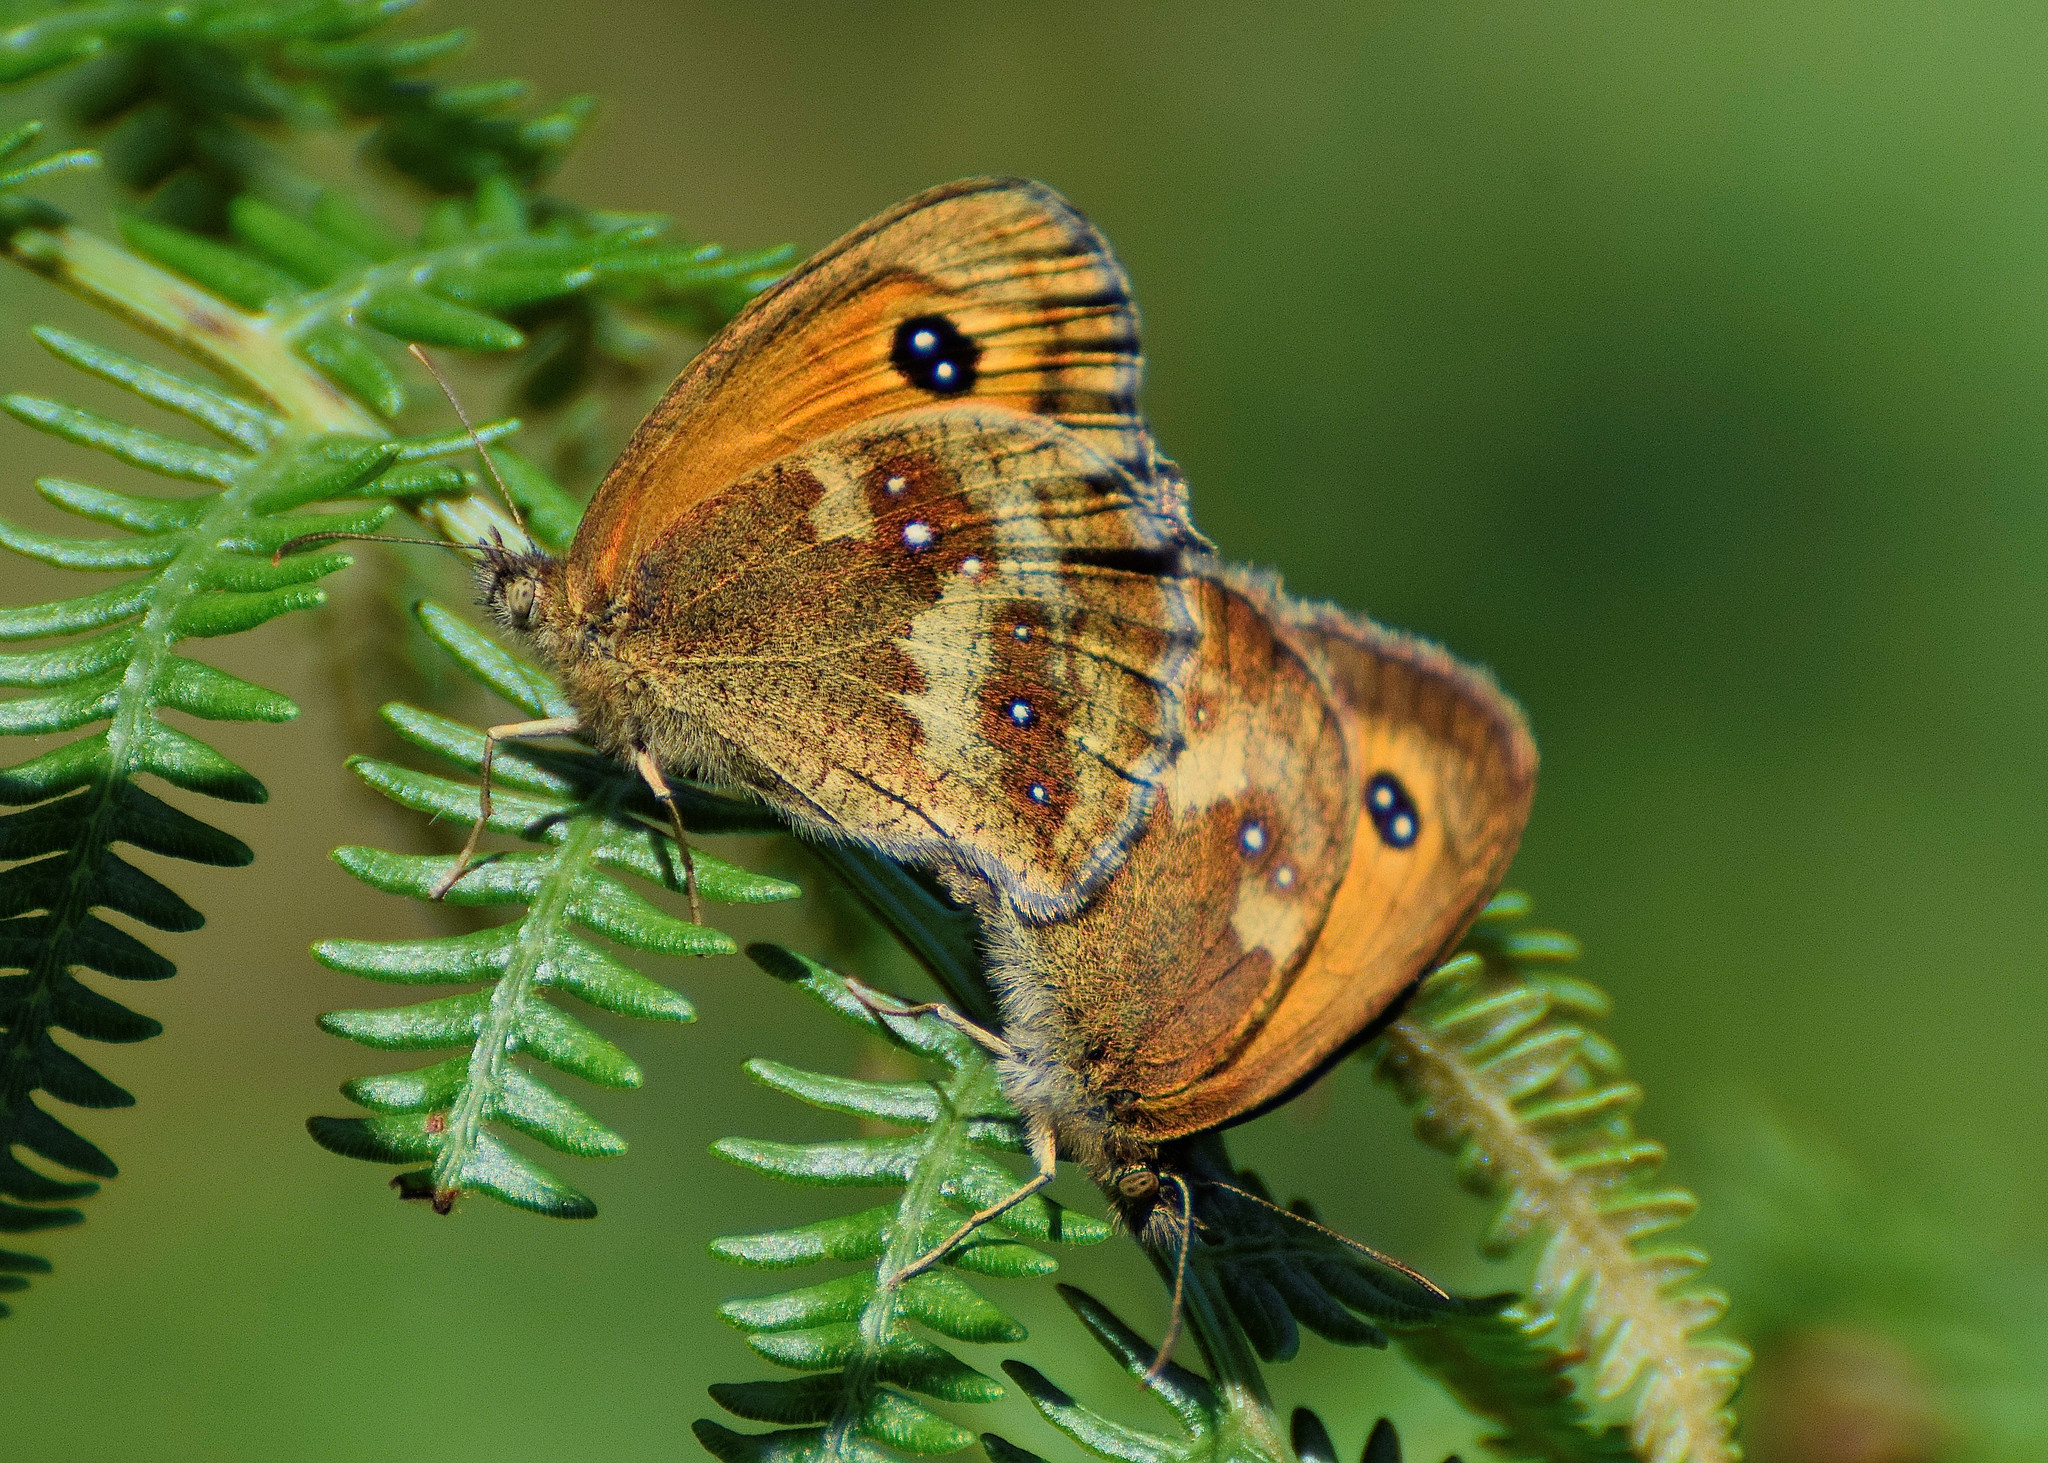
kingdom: Animalia
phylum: Arthropoda
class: Insecta
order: Lepidoptera
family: Nymphalidae
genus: Pyronia
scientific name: Pyronia tithonus
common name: Gatekeeper
